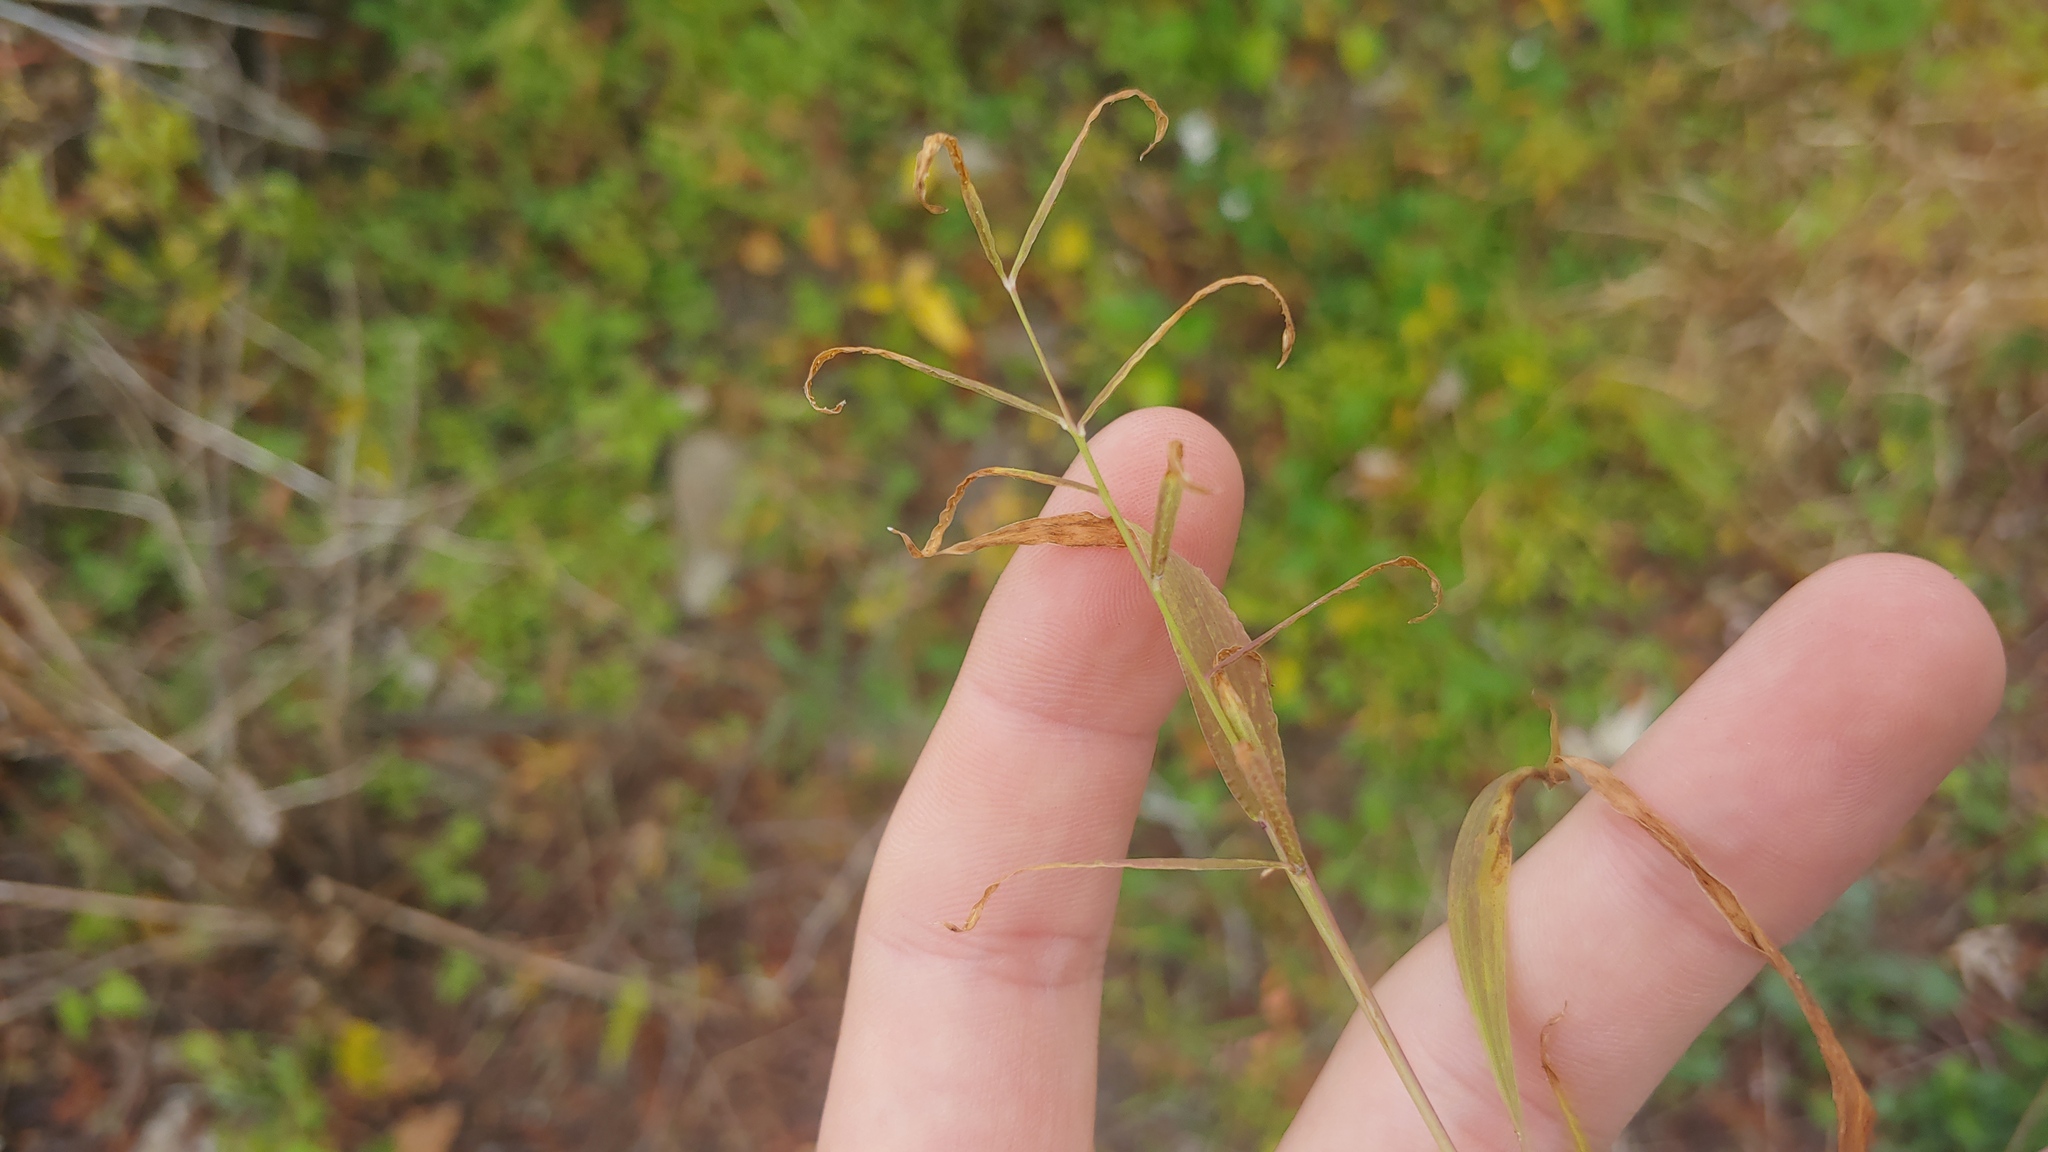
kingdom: Plantae
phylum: Tracheophyta
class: Liliopsida
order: Poales
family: Poaceae
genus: Paspalum
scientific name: Paspalum repens
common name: Water paspalum
